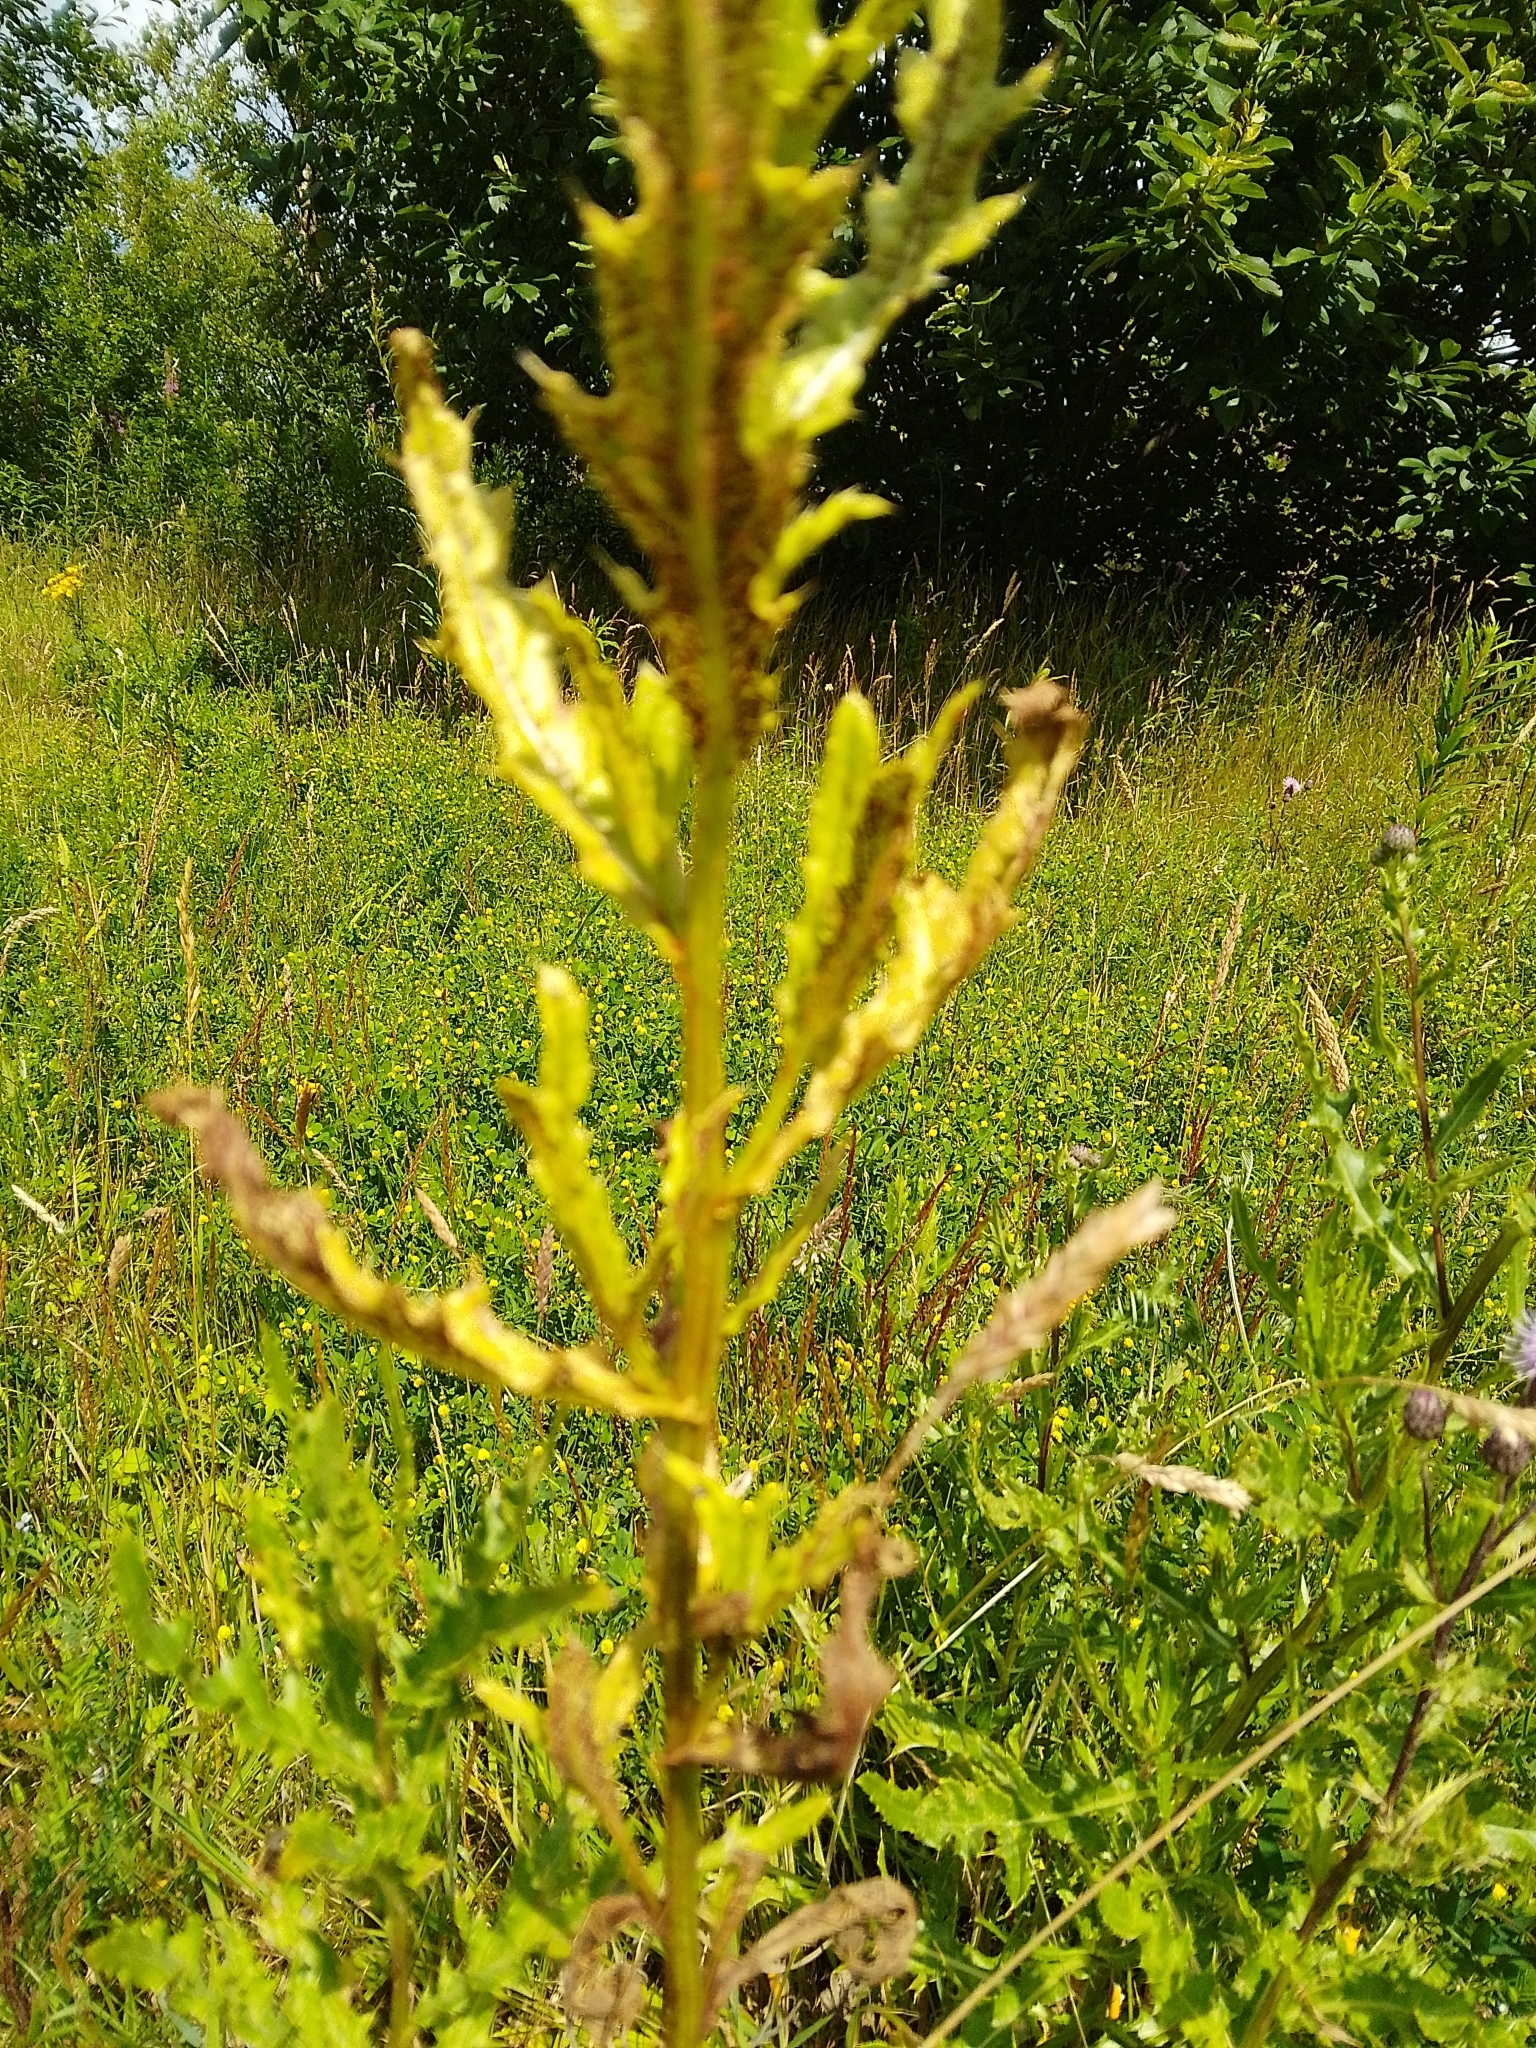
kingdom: Fungi
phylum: Basidiomycota
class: Pucciniomycetes
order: Pucciniales
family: Pucciniaceae
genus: Puccinia
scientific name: Puccinia suaveolens
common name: Thistle rust
